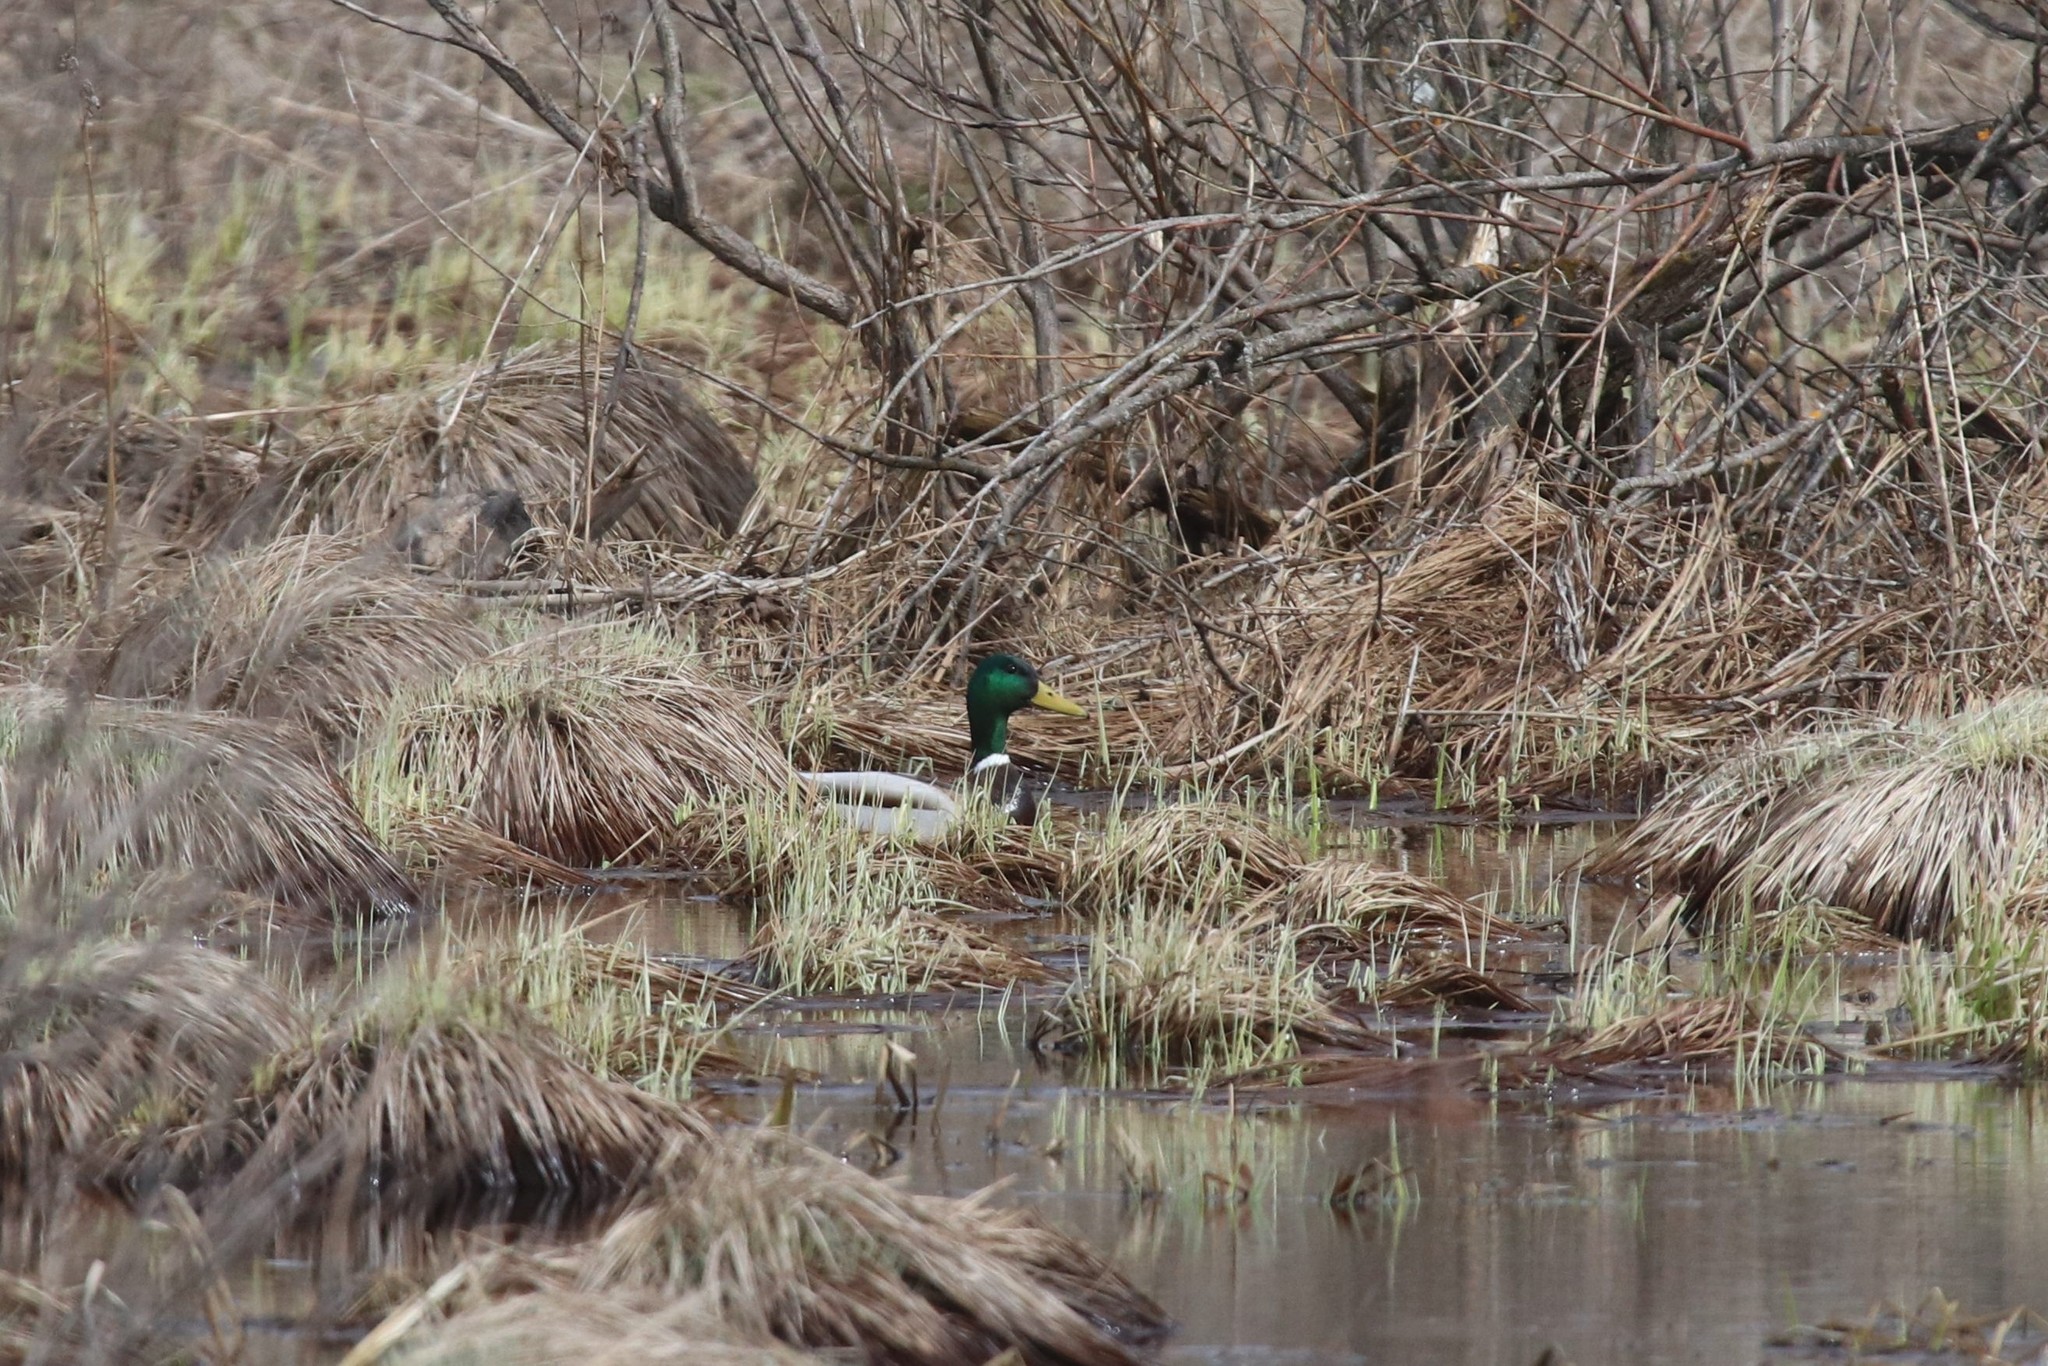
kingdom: Animalia
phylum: Chordata
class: Aves
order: Anseriformes
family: Anatidae
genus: Anas
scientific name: Anas platyrhynchos
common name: Mallard
